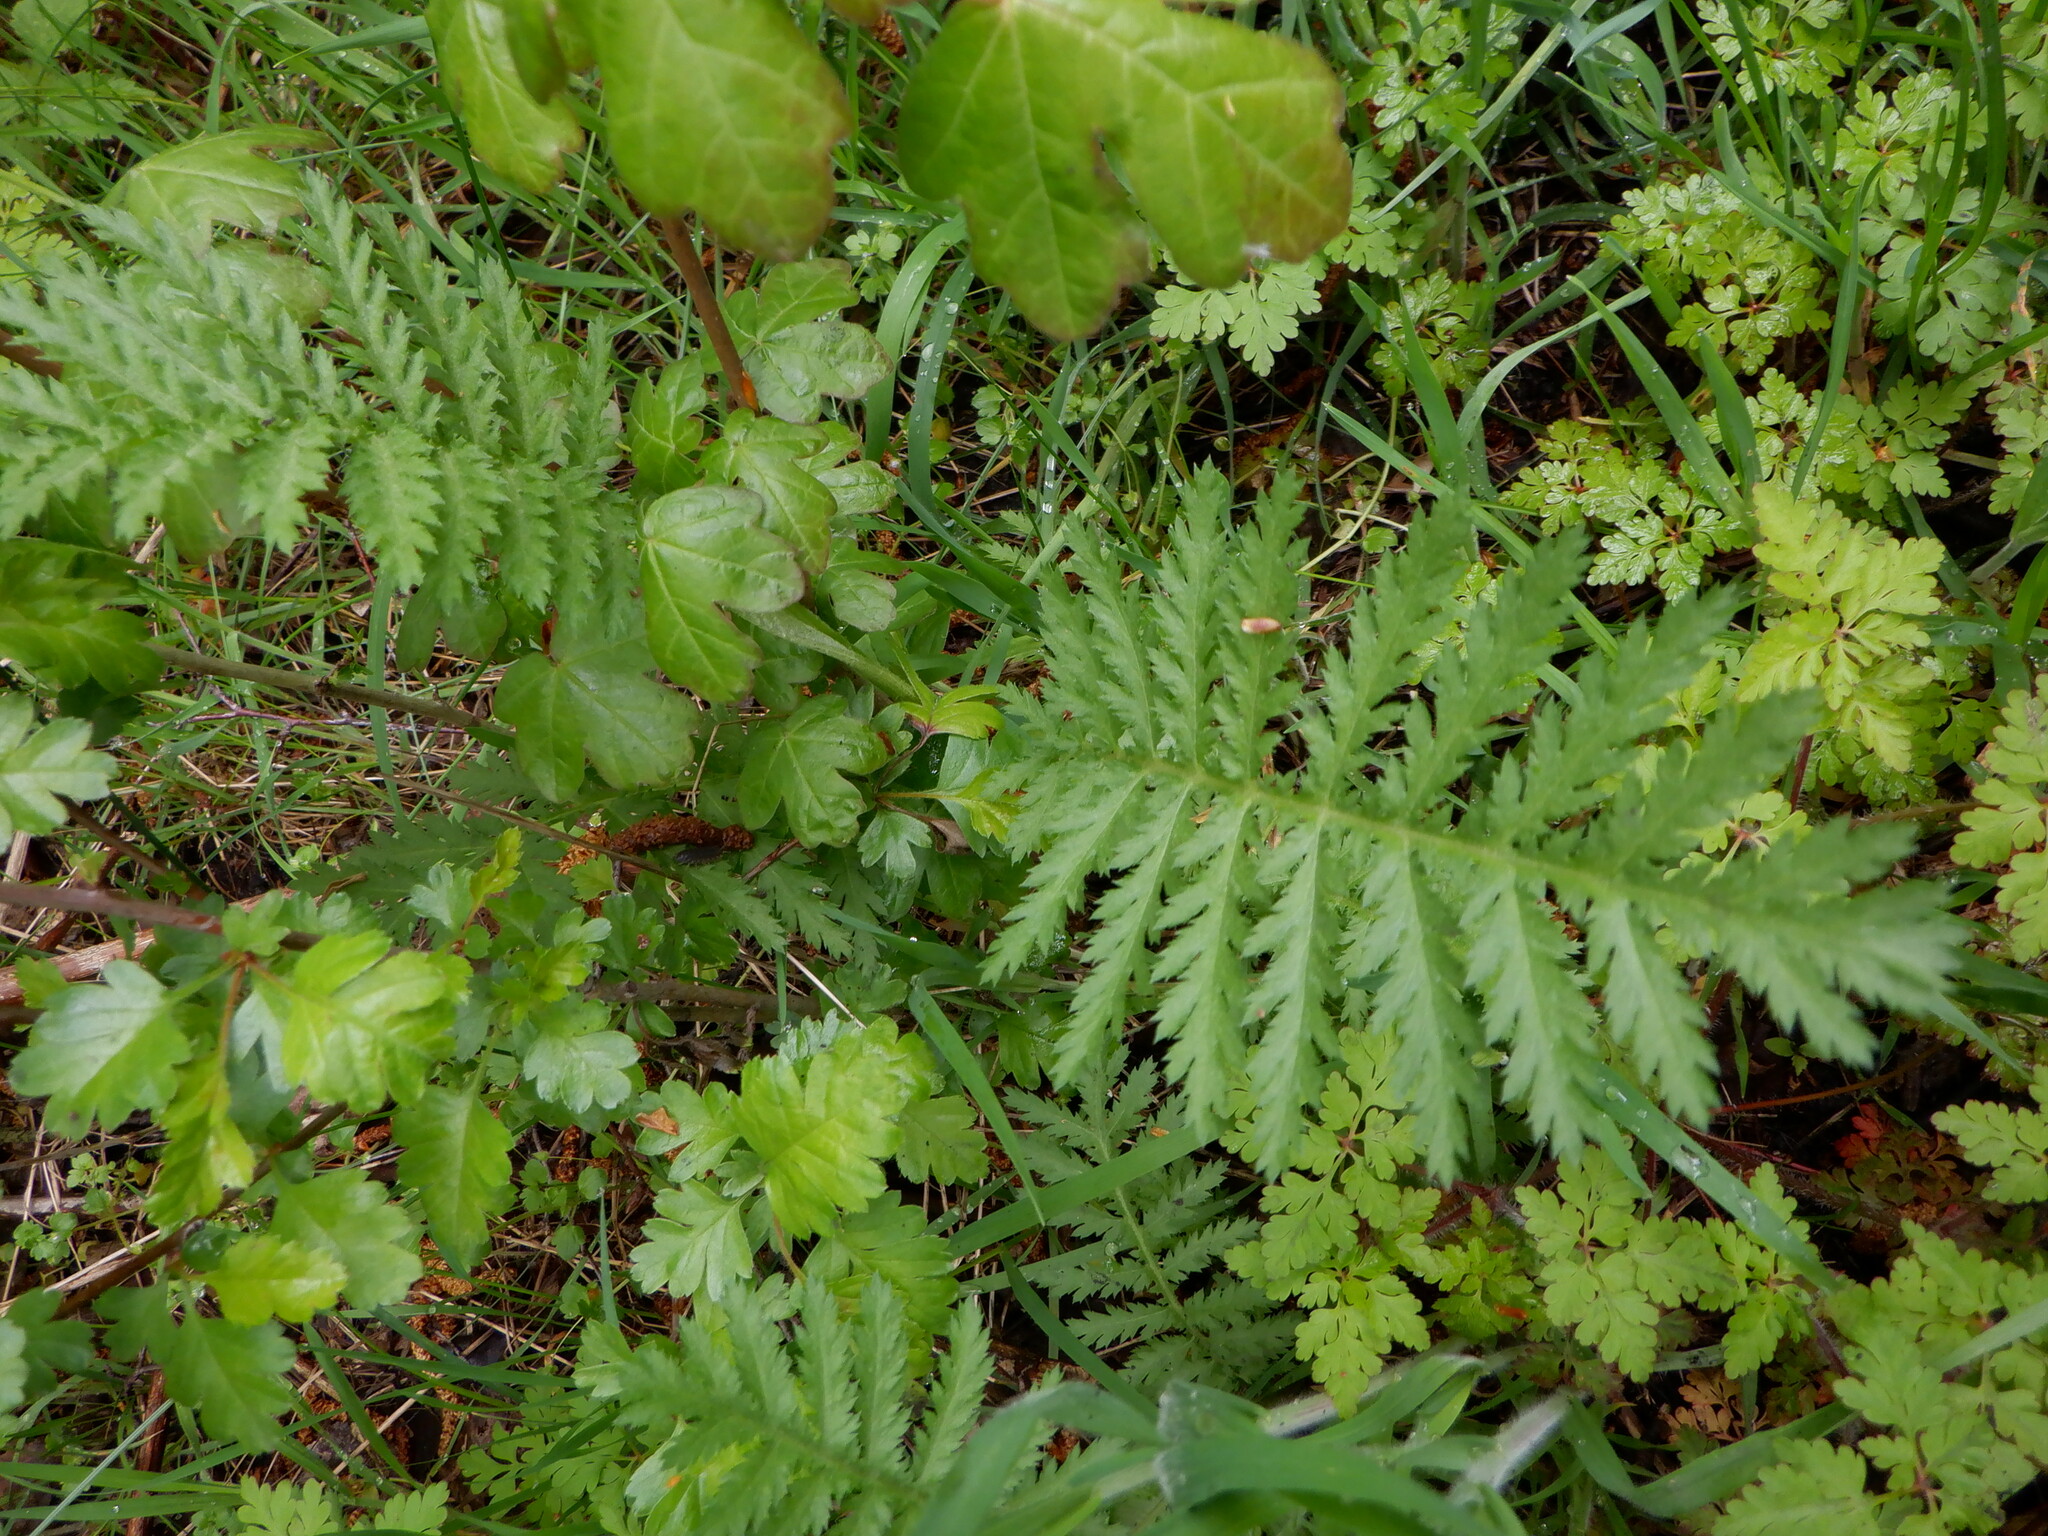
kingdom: Plantae
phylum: Tracheophyta
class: Magnoliopsida
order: Asterales
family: Asteraceae
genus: Tanacetum
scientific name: Tanacetum vulgare
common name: Common tansy
